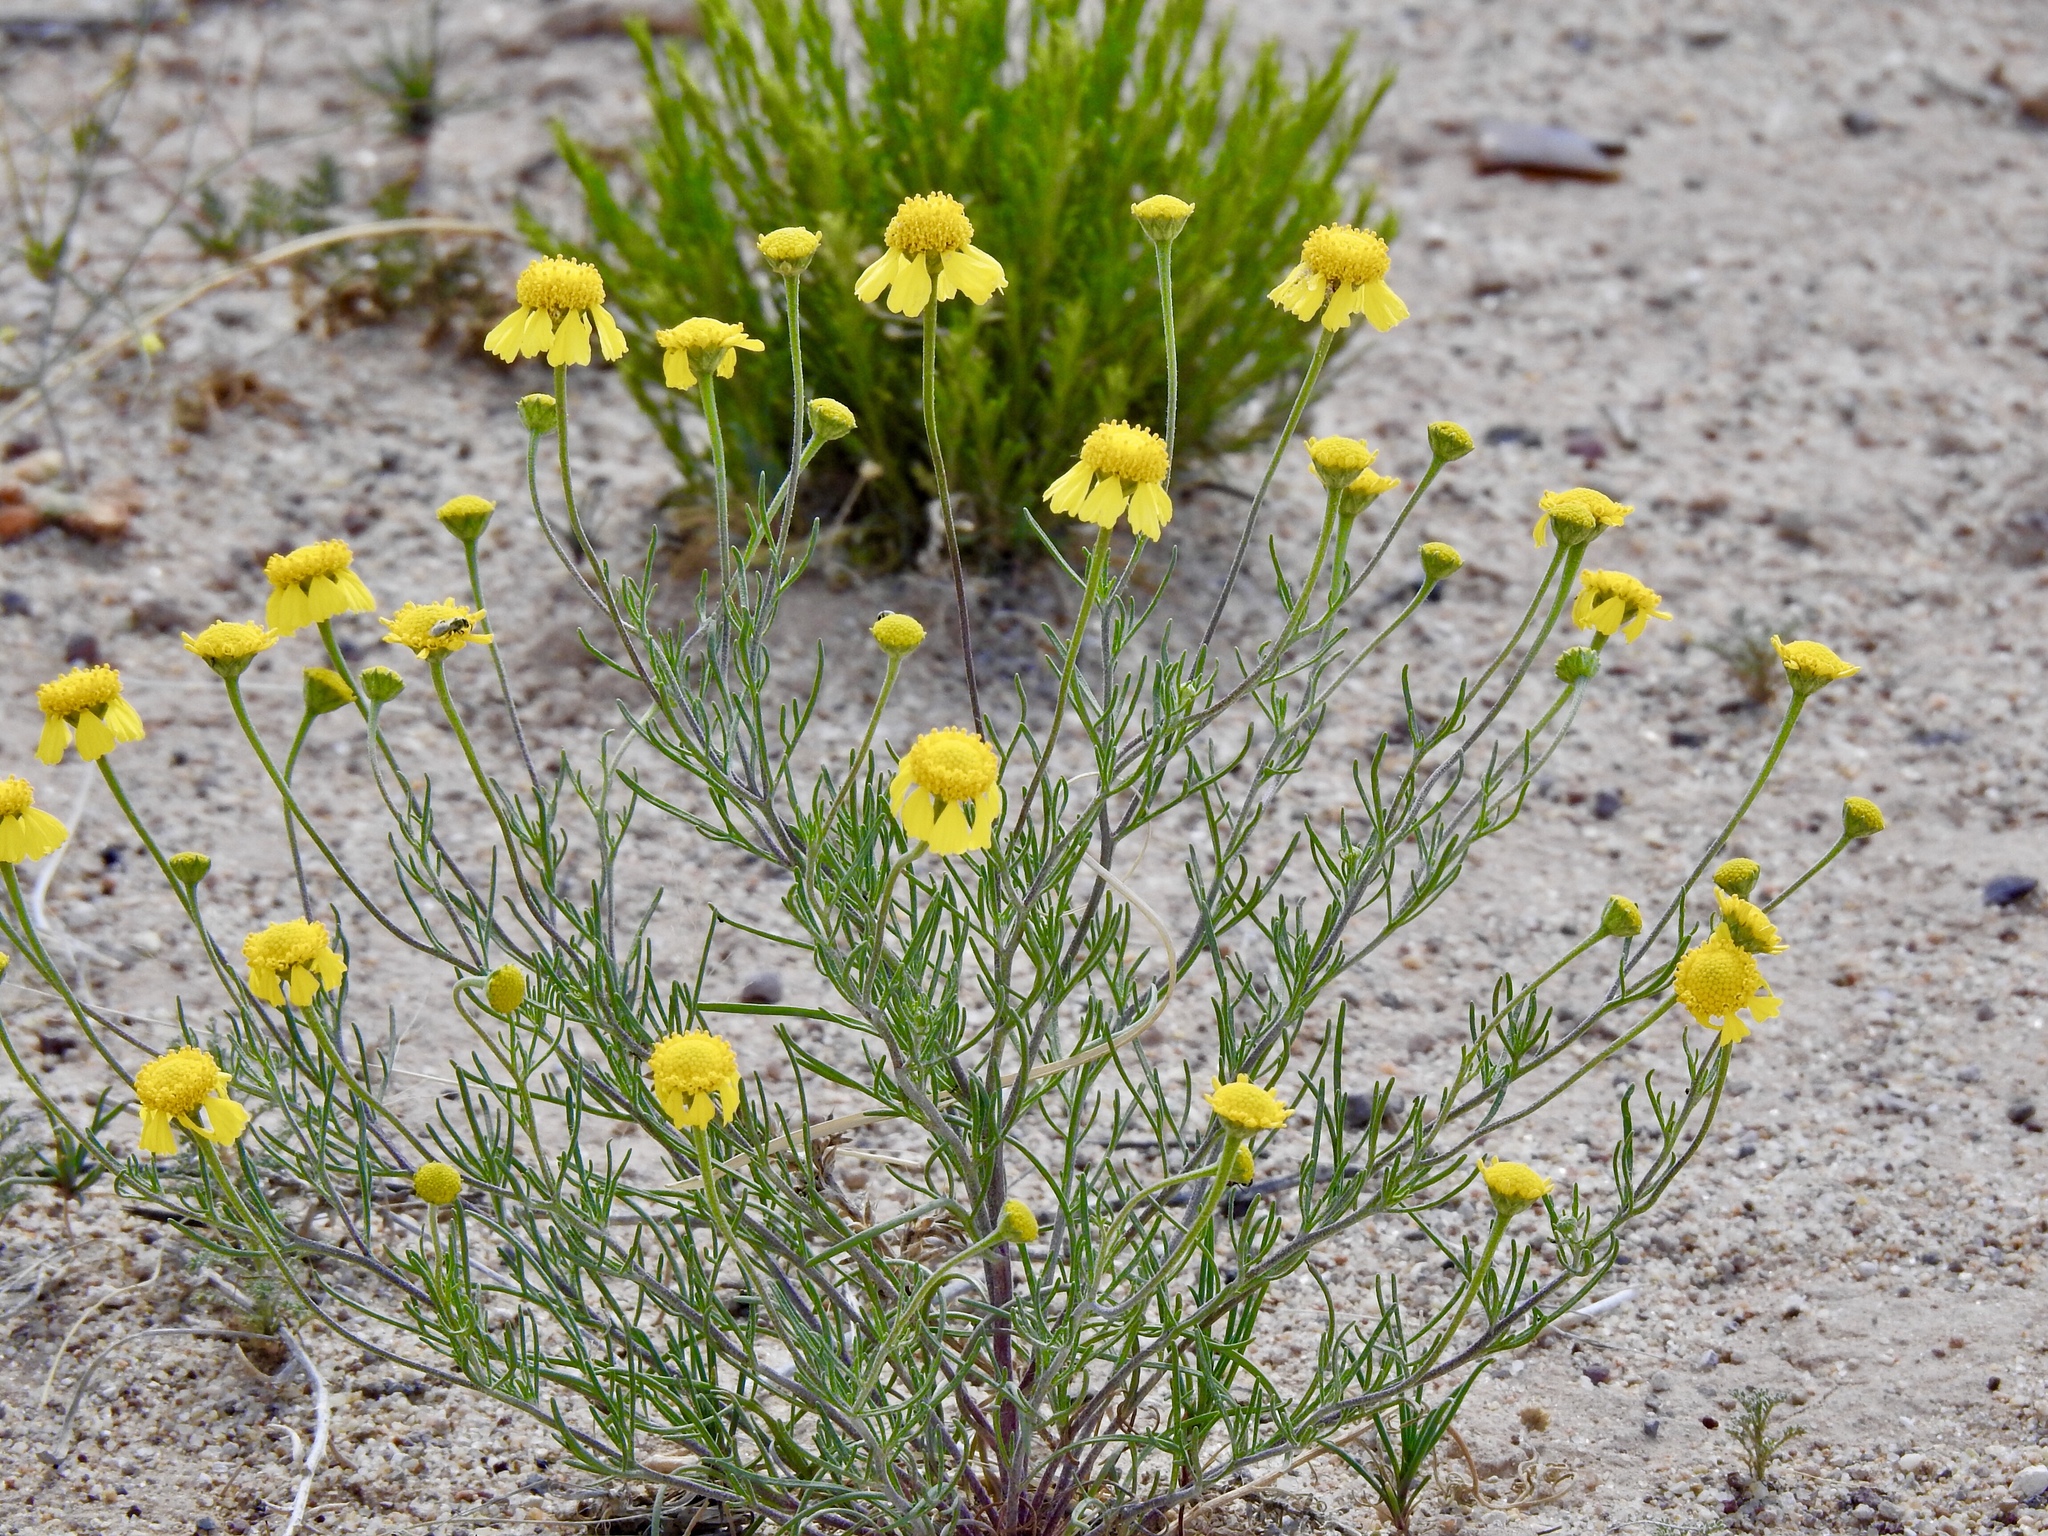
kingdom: Plantae
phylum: Tracheophyta
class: Magnoliopsida
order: Asterales
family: Asteraceae
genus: Hymenoxys
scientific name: Hymenoxys odorata
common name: Bitter rubberweed
